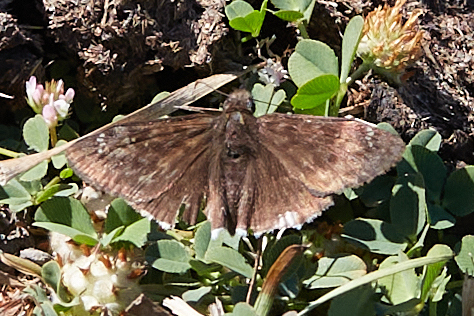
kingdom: Animalia
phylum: Arthropoda
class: Insecta
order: Lepidoptera
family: Hesperiidae
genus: Erynnis
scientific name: Erynnis tristis
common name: Mournful duskywing
